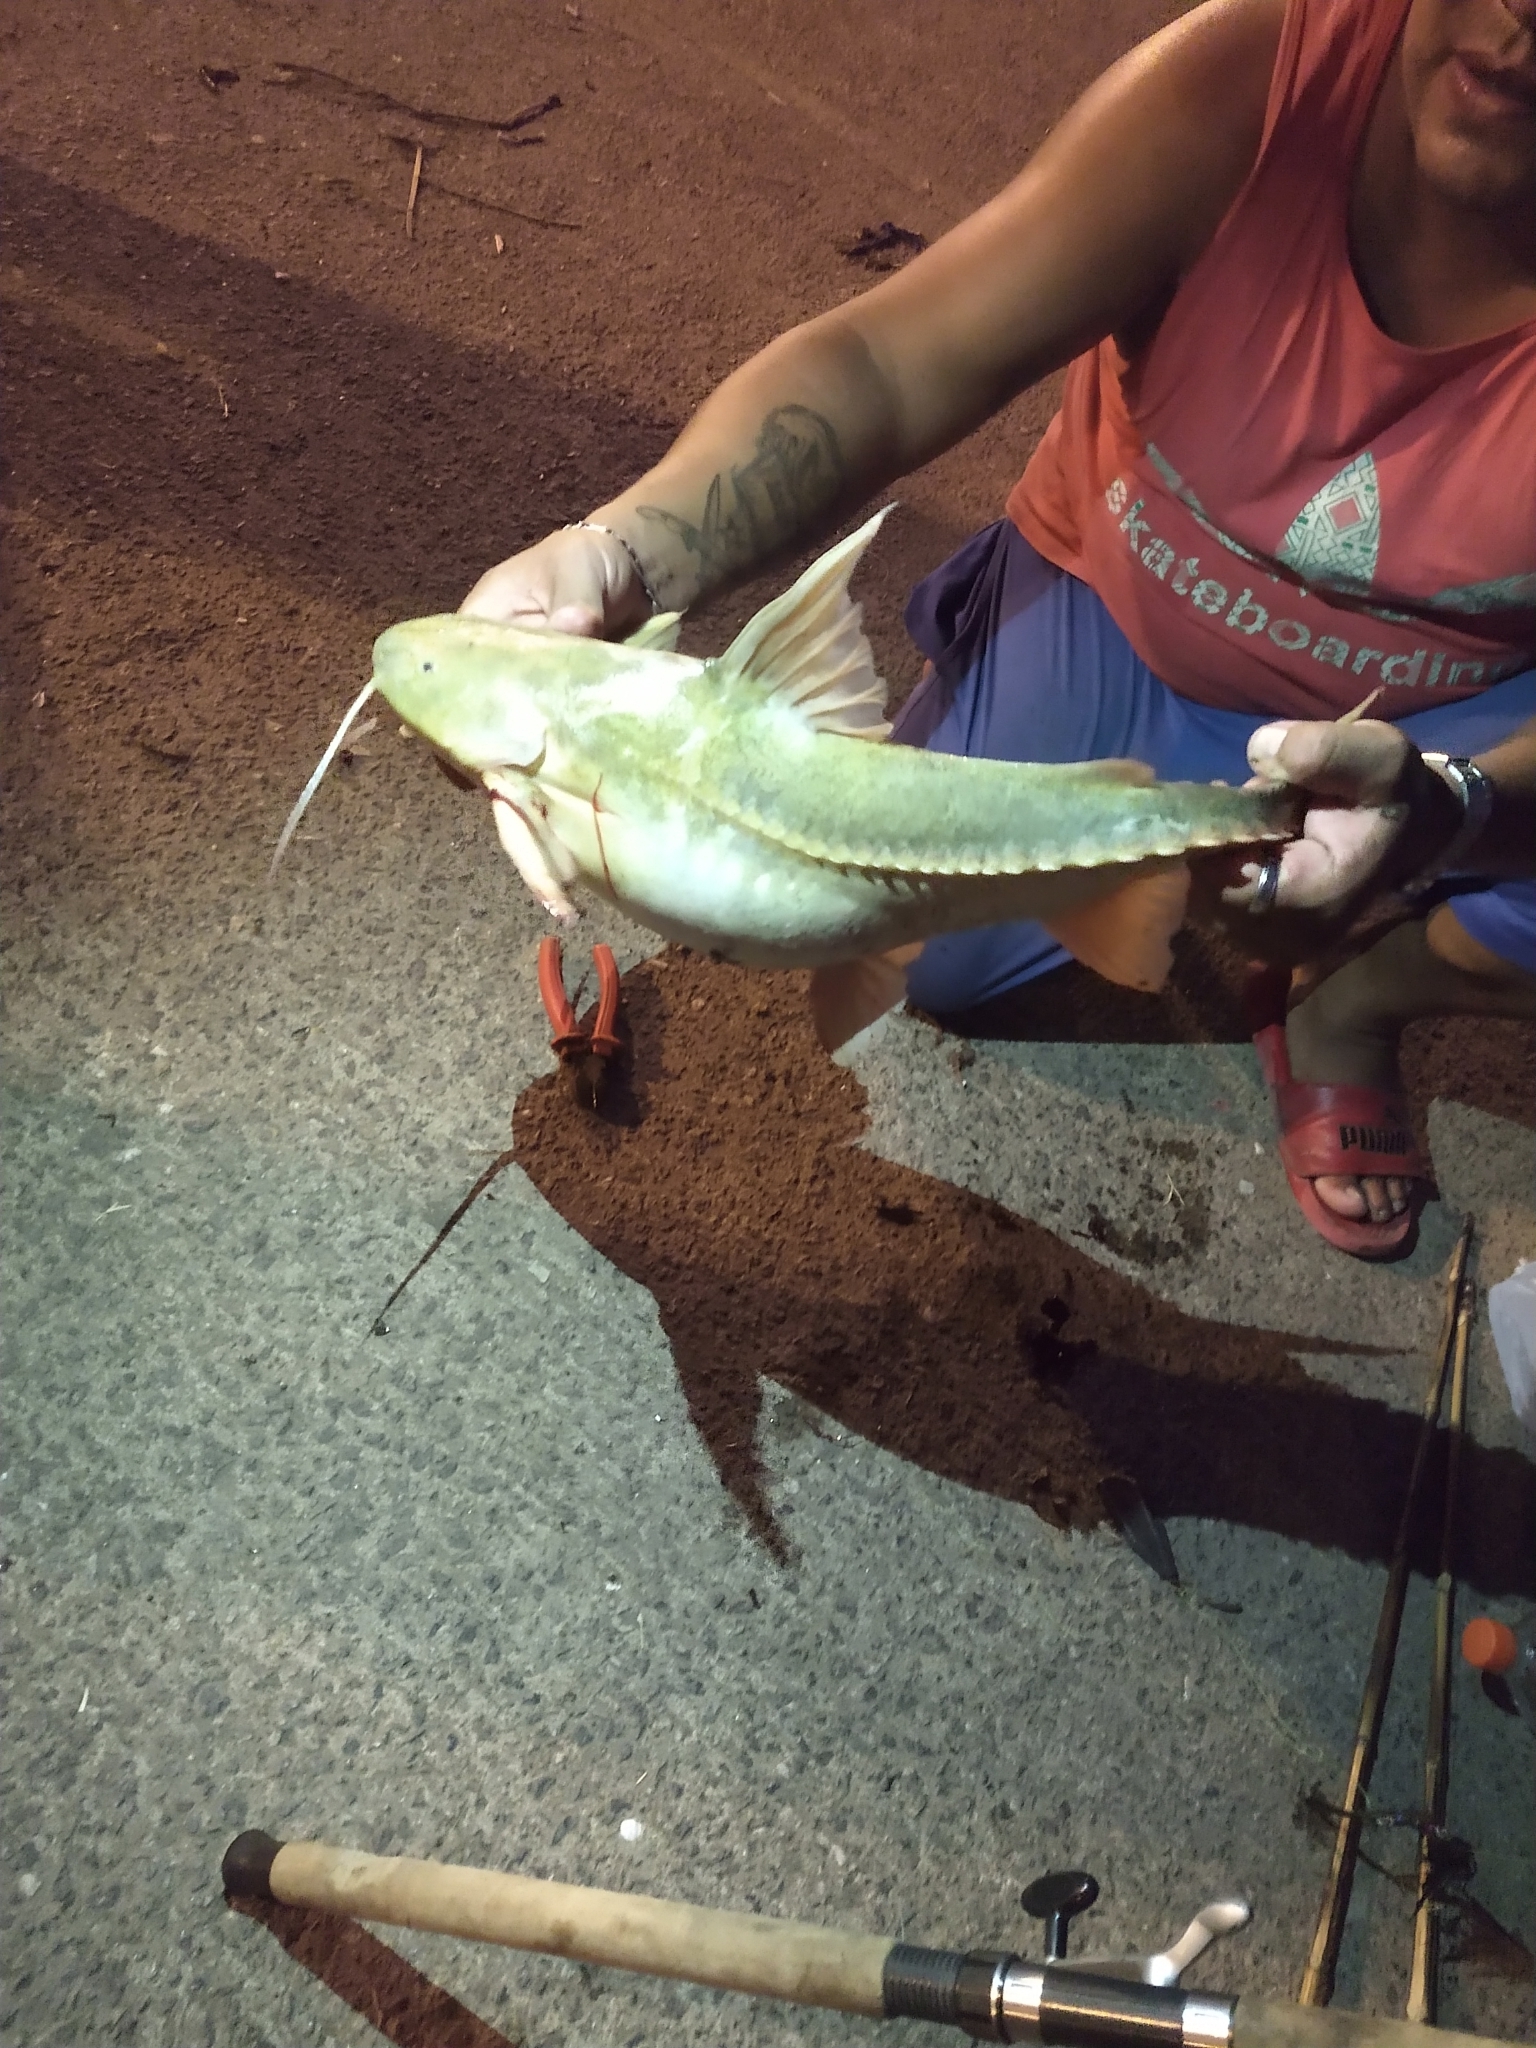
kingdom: Animalia
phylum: Chordata
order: Siluriformes
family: Doradidae
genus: Pterodoras
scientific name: Pterodoras granulosus
